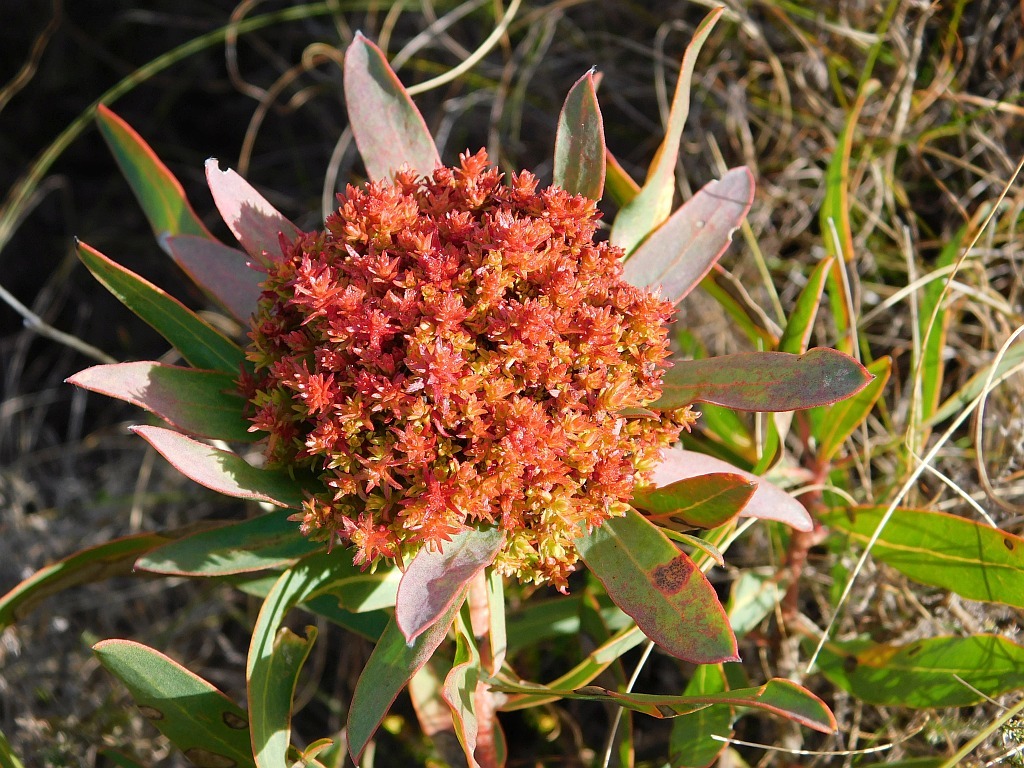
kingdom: Bacteria
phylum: Firmicutes
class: Bacilli
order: Acholeplasmatales
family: Acholeplasmataceae
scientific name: Acholeplasmataceae
